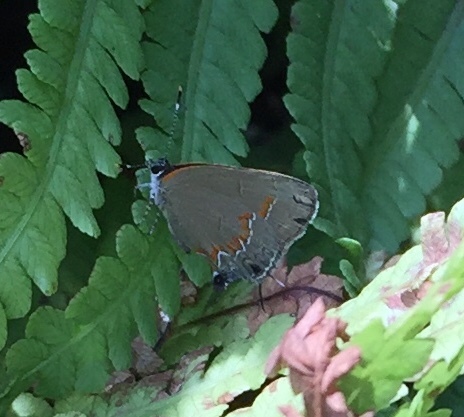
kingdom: Animalia
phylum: Arthropoda
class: Insecta
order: Lepidoptera
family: Lycaenidae
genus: Calycopis
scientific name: Calycopis cecrops
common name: Red-banded hairstreak
